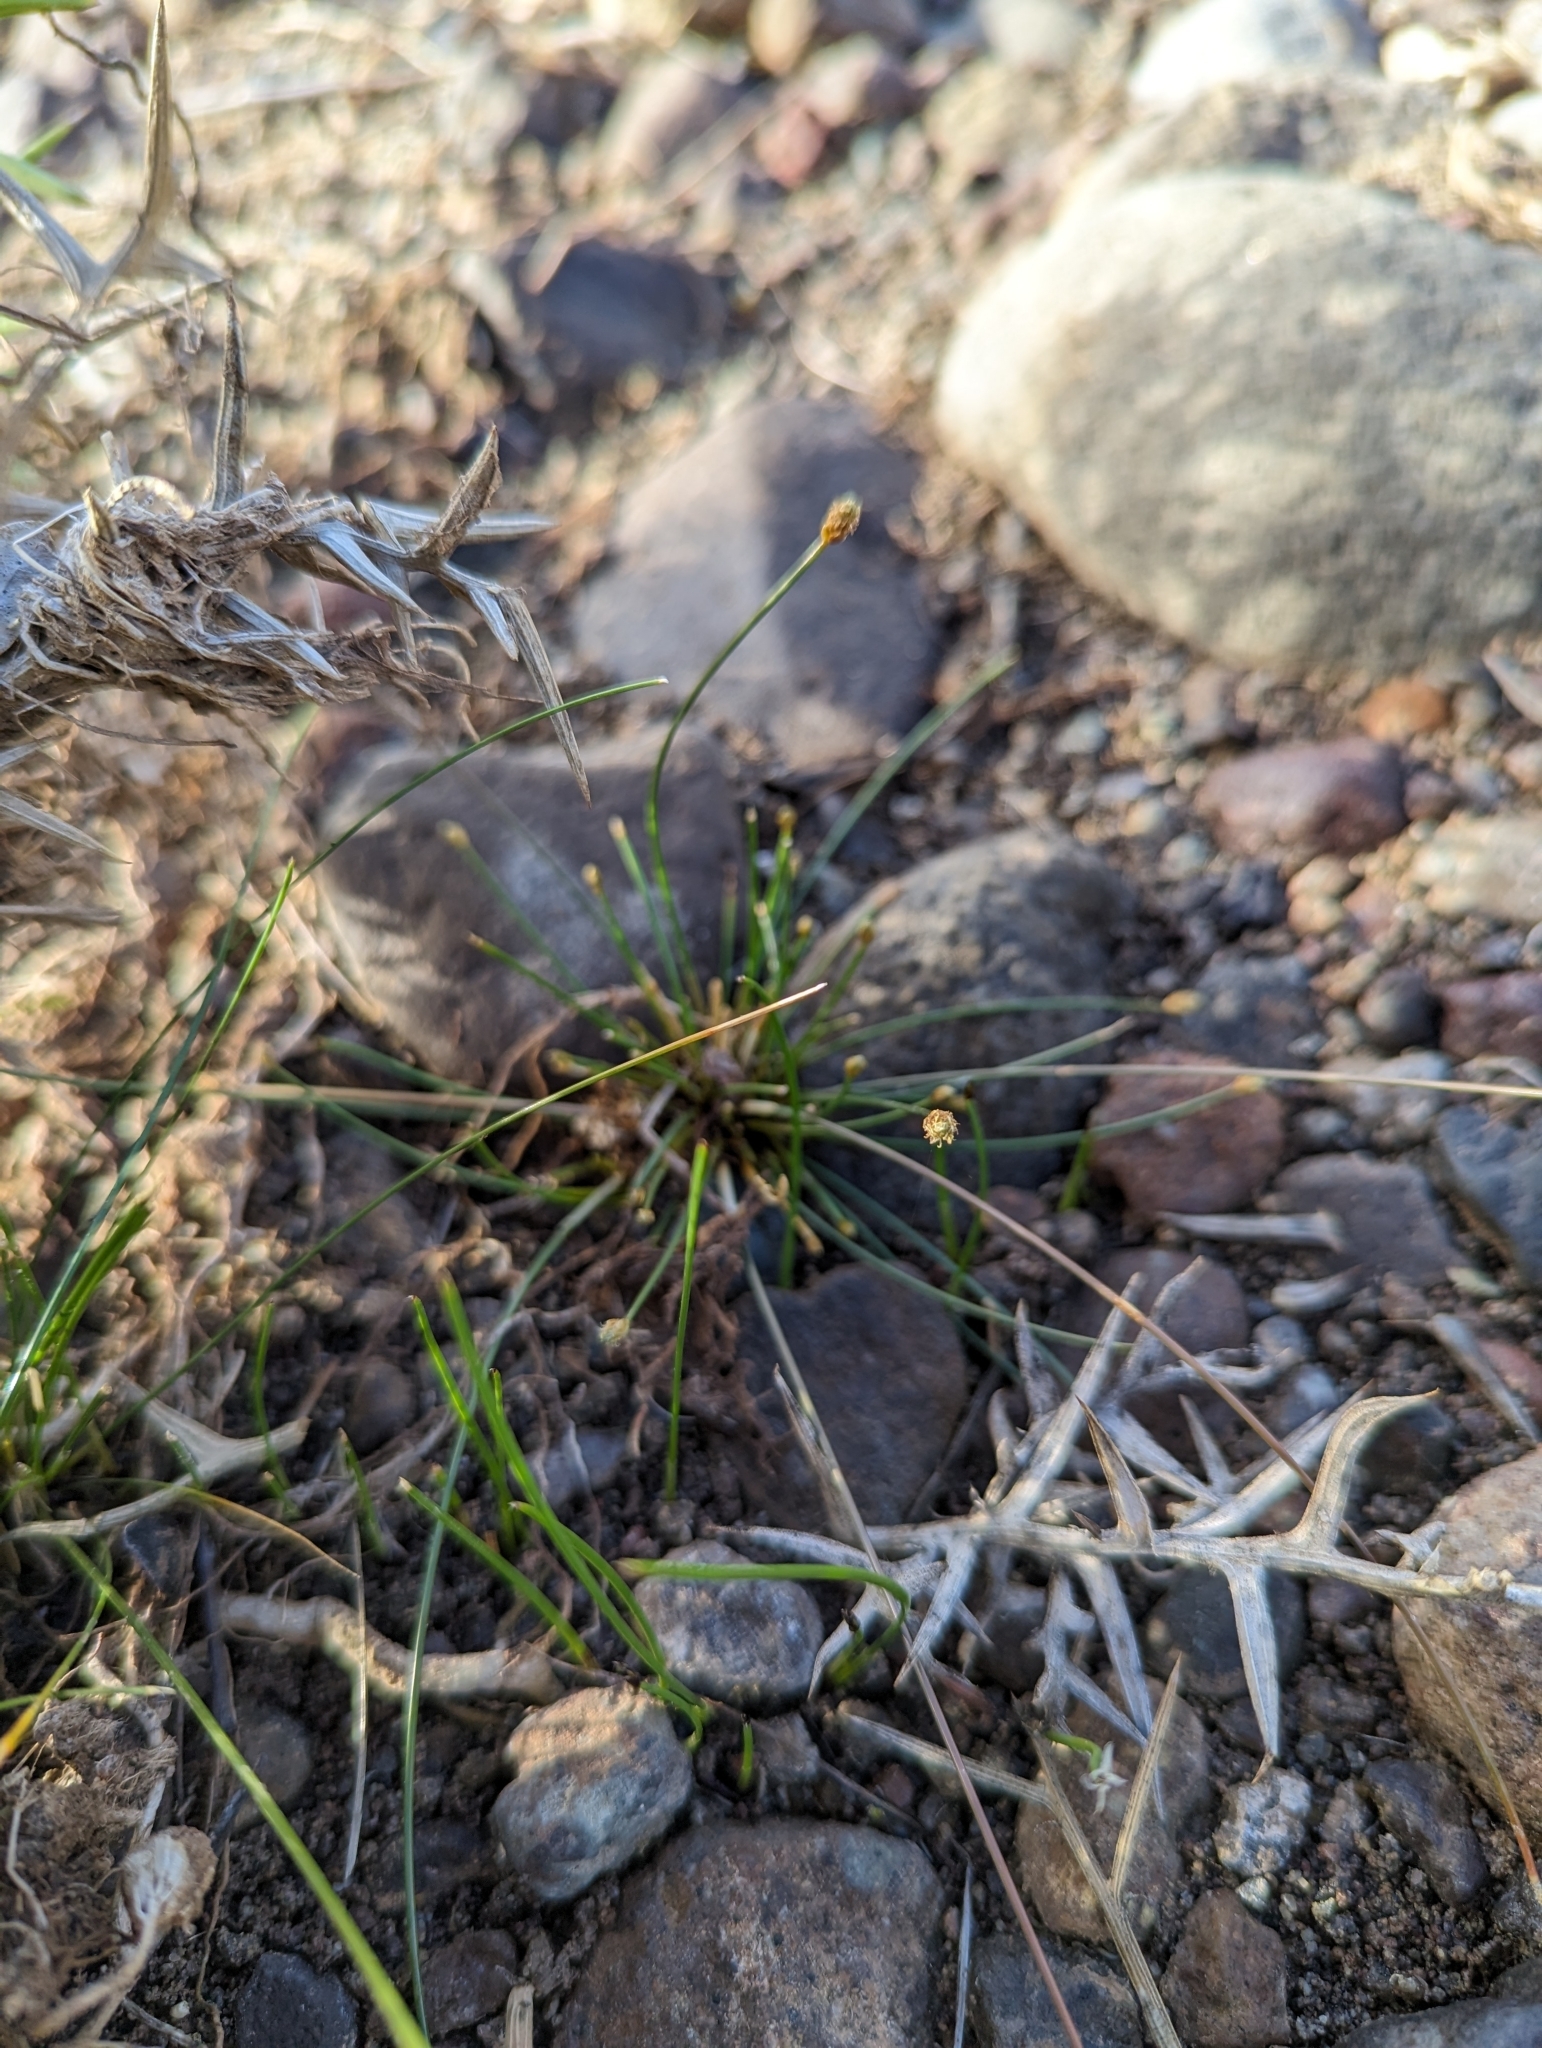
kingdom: Plantae
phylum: Tracheophyta
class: Liliopsida
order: Poales
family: Cyperaceae
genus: Eleocharis
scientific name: Eleocharis geniculata
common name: Canada spikesedge
